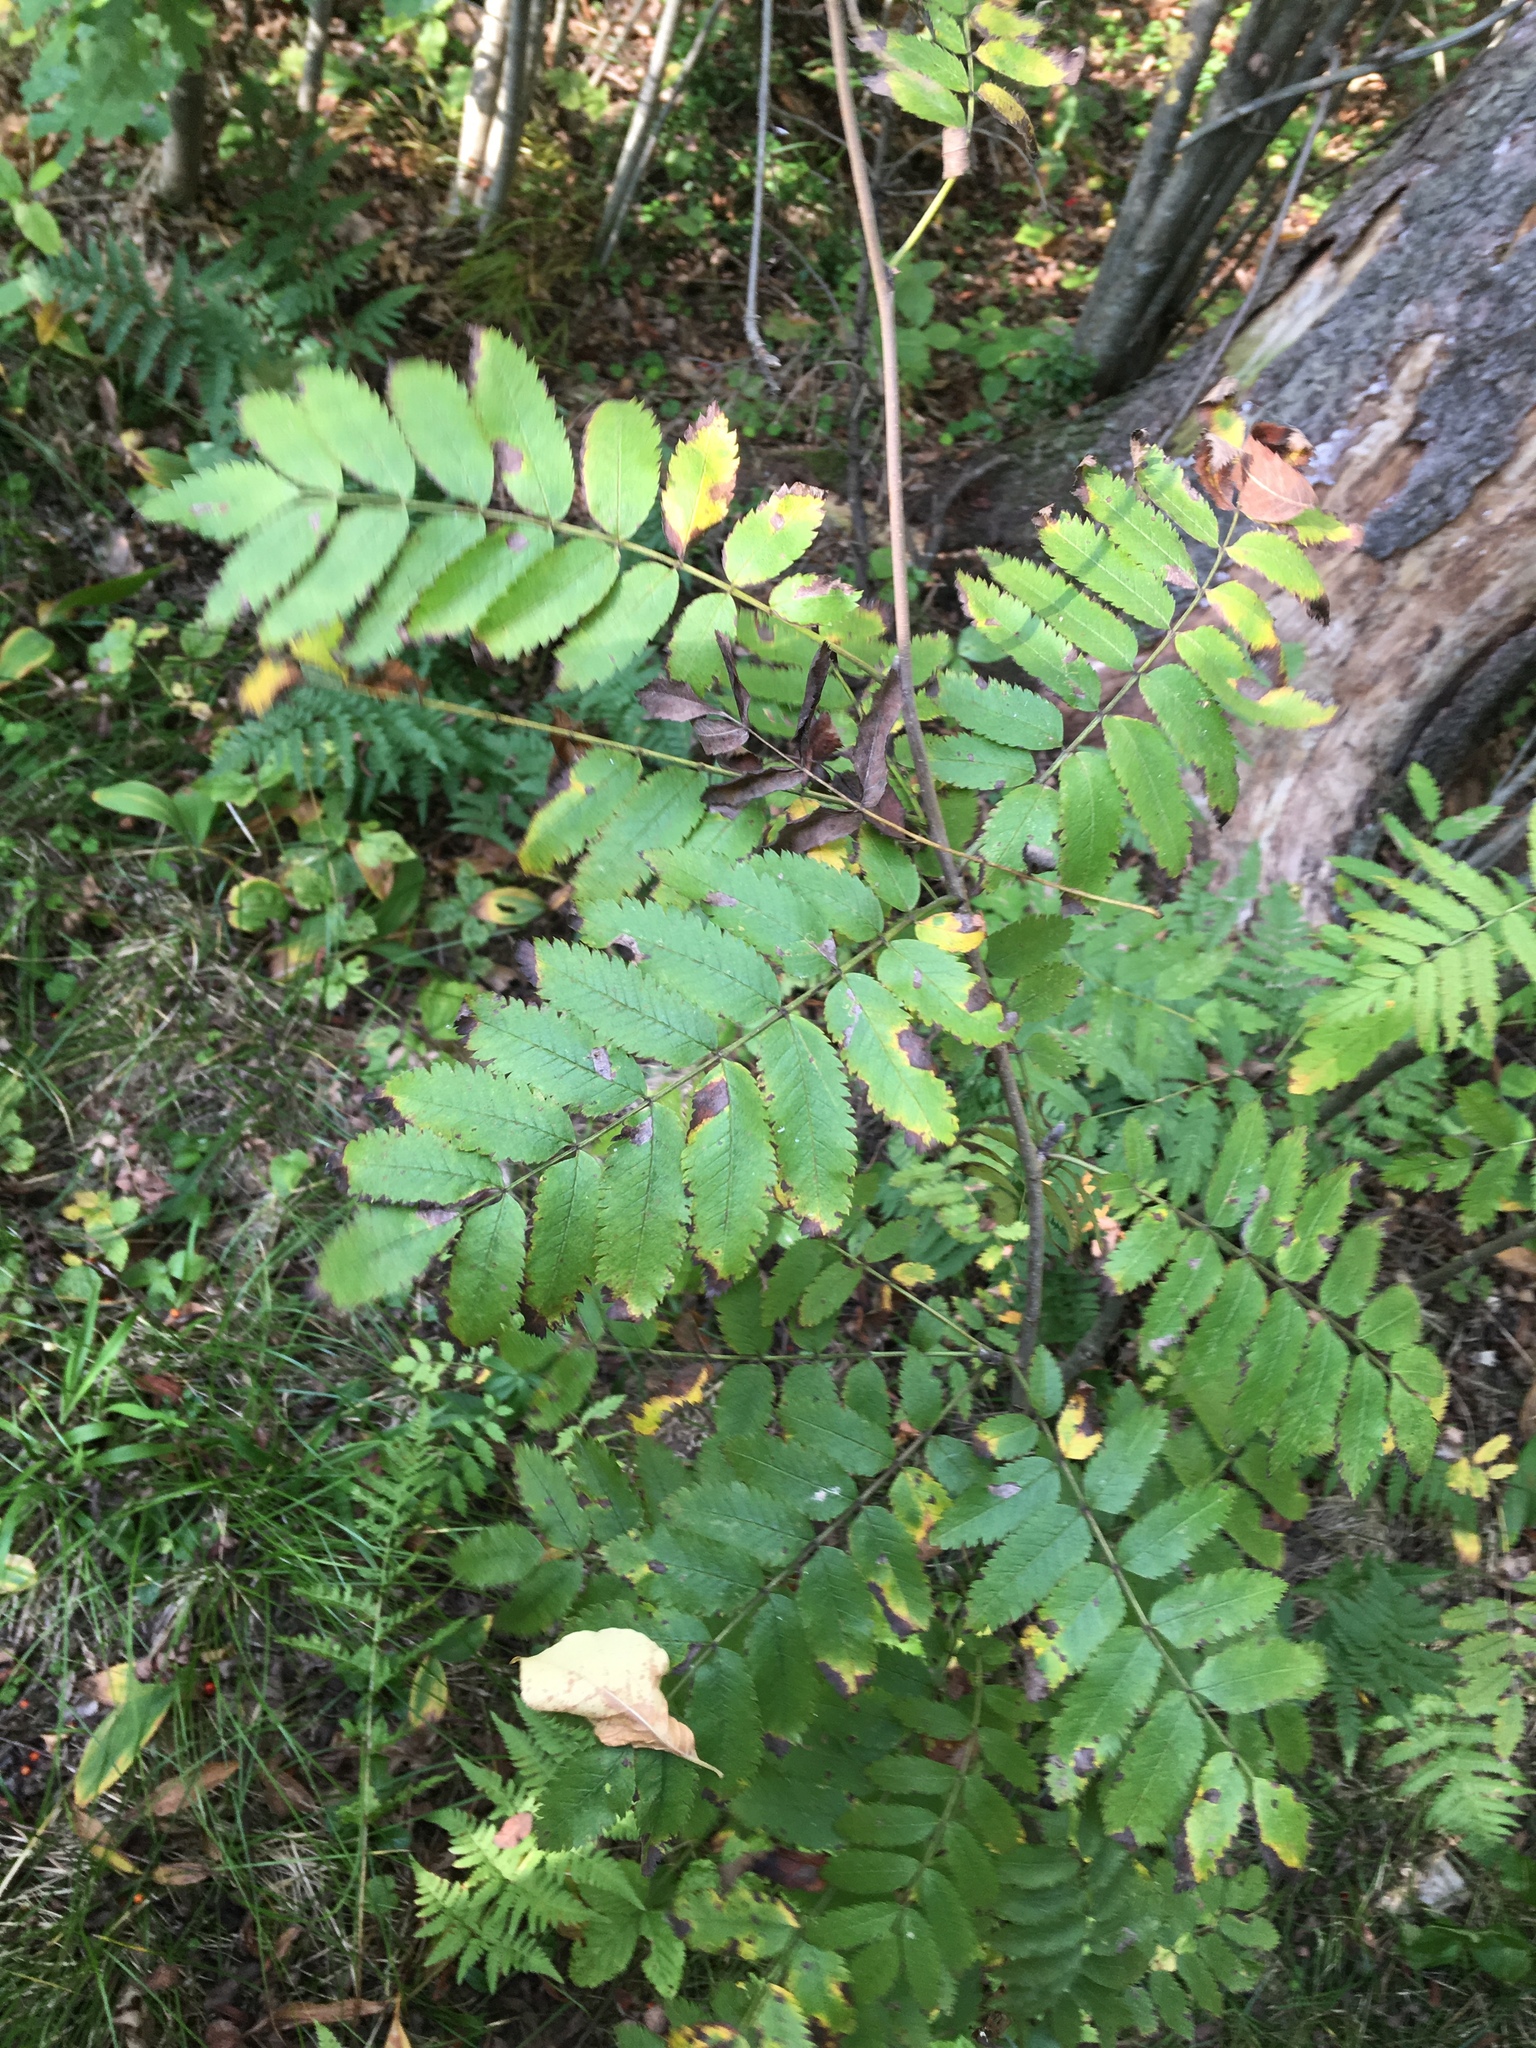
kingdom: Plantae
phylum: Tracheophyta
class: Magnoliopsida
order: Rosales
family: Rosaceae
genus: Sorbus
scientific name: Sorbus aucuparia
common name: Rowan
